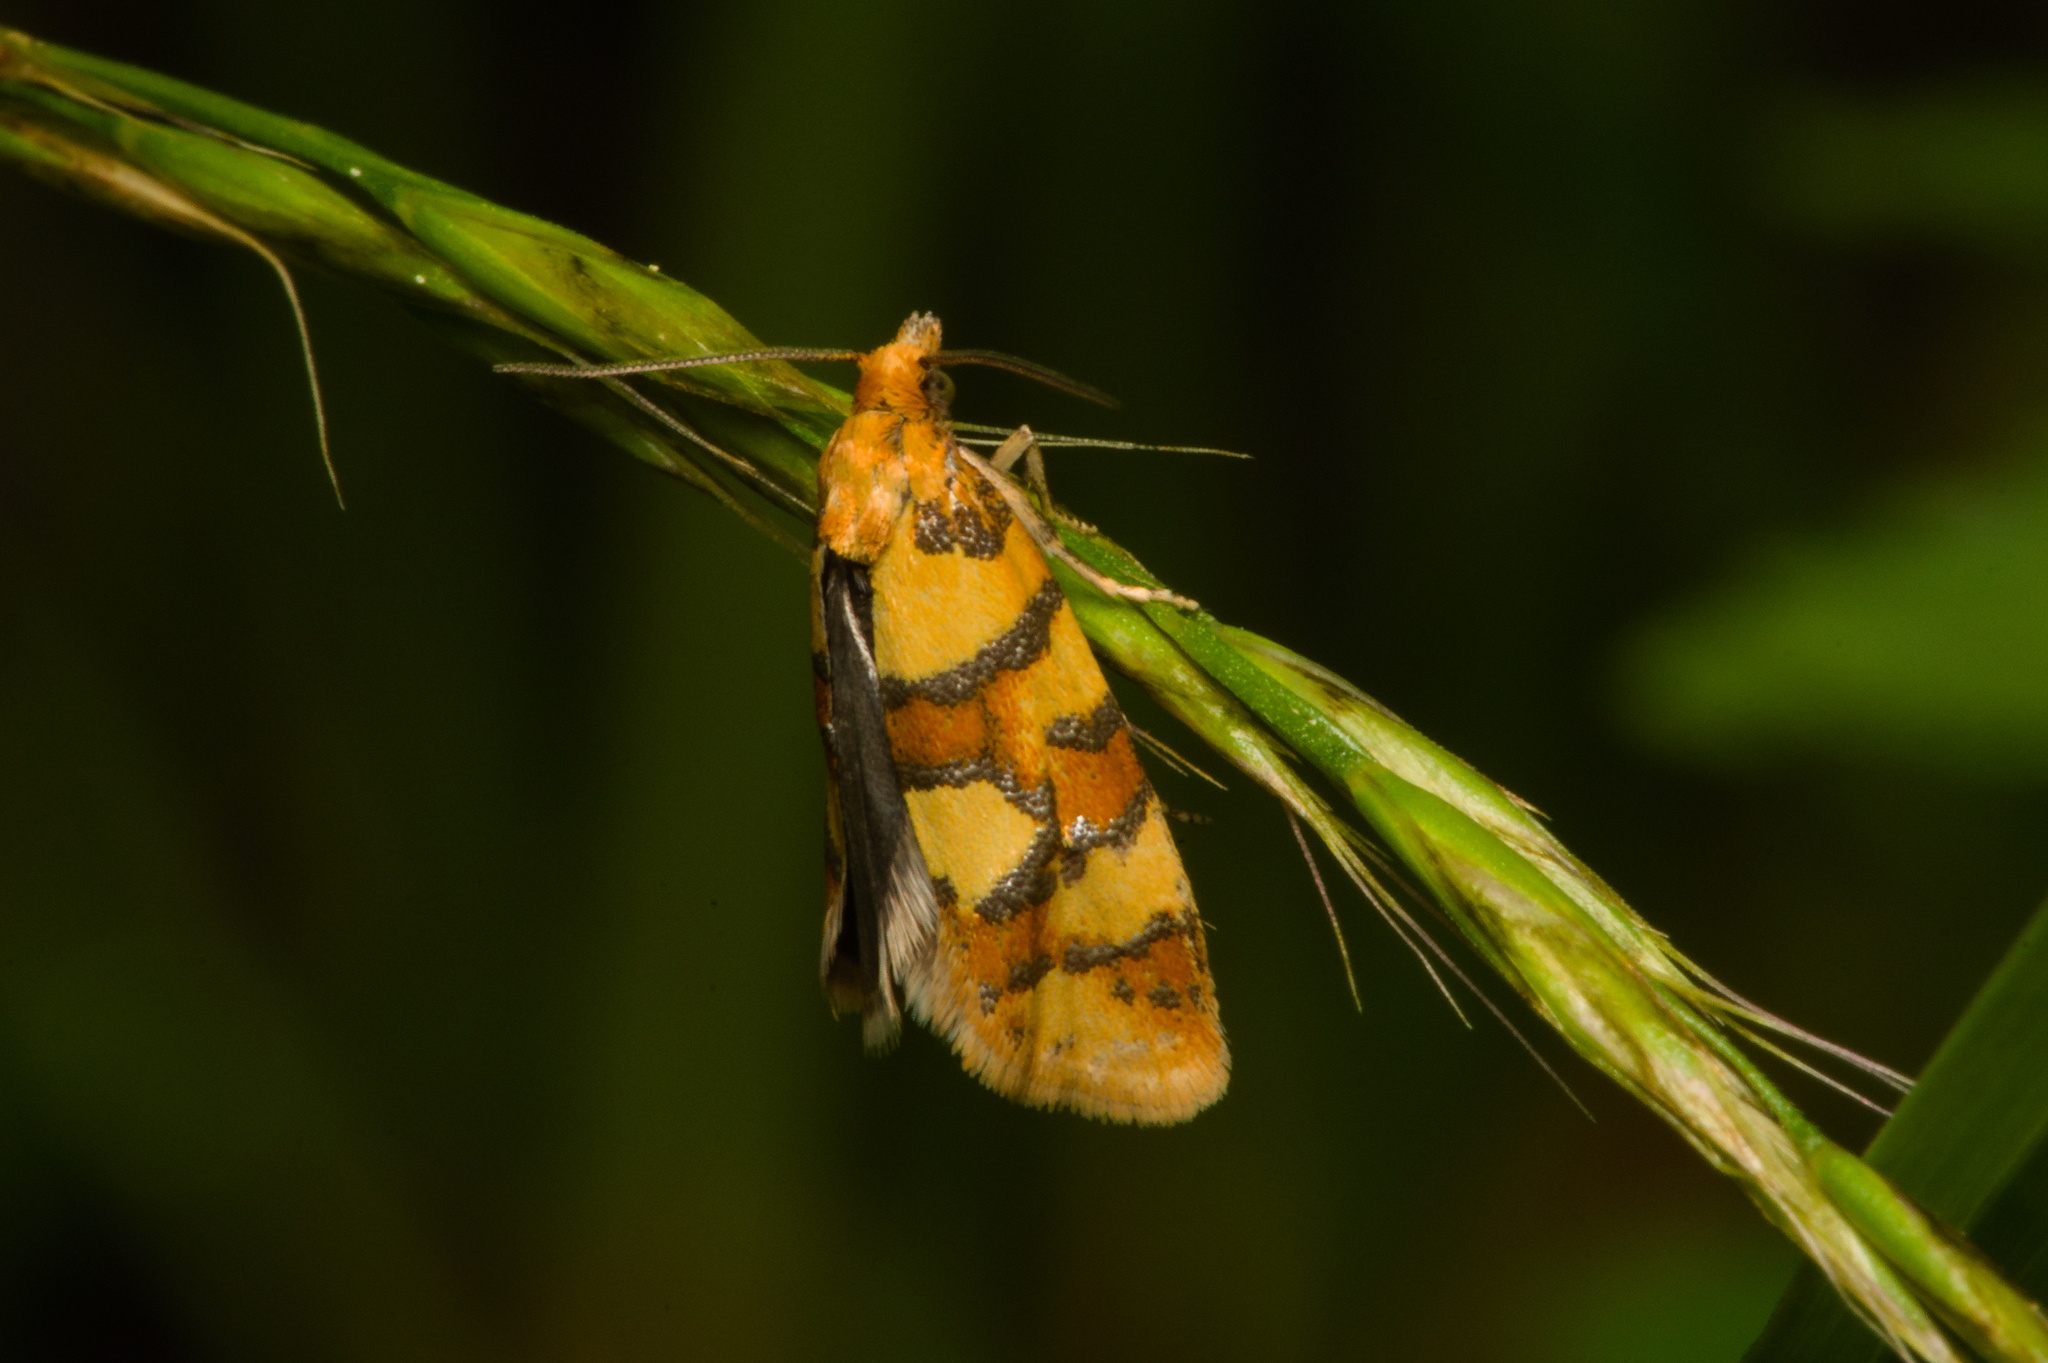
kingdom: Animalia
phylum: Arthropoda
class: Insecta
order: Lepidoptera
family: Tortricidae
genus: Aethes
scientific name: Aethes tesserana
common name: Downland conch
